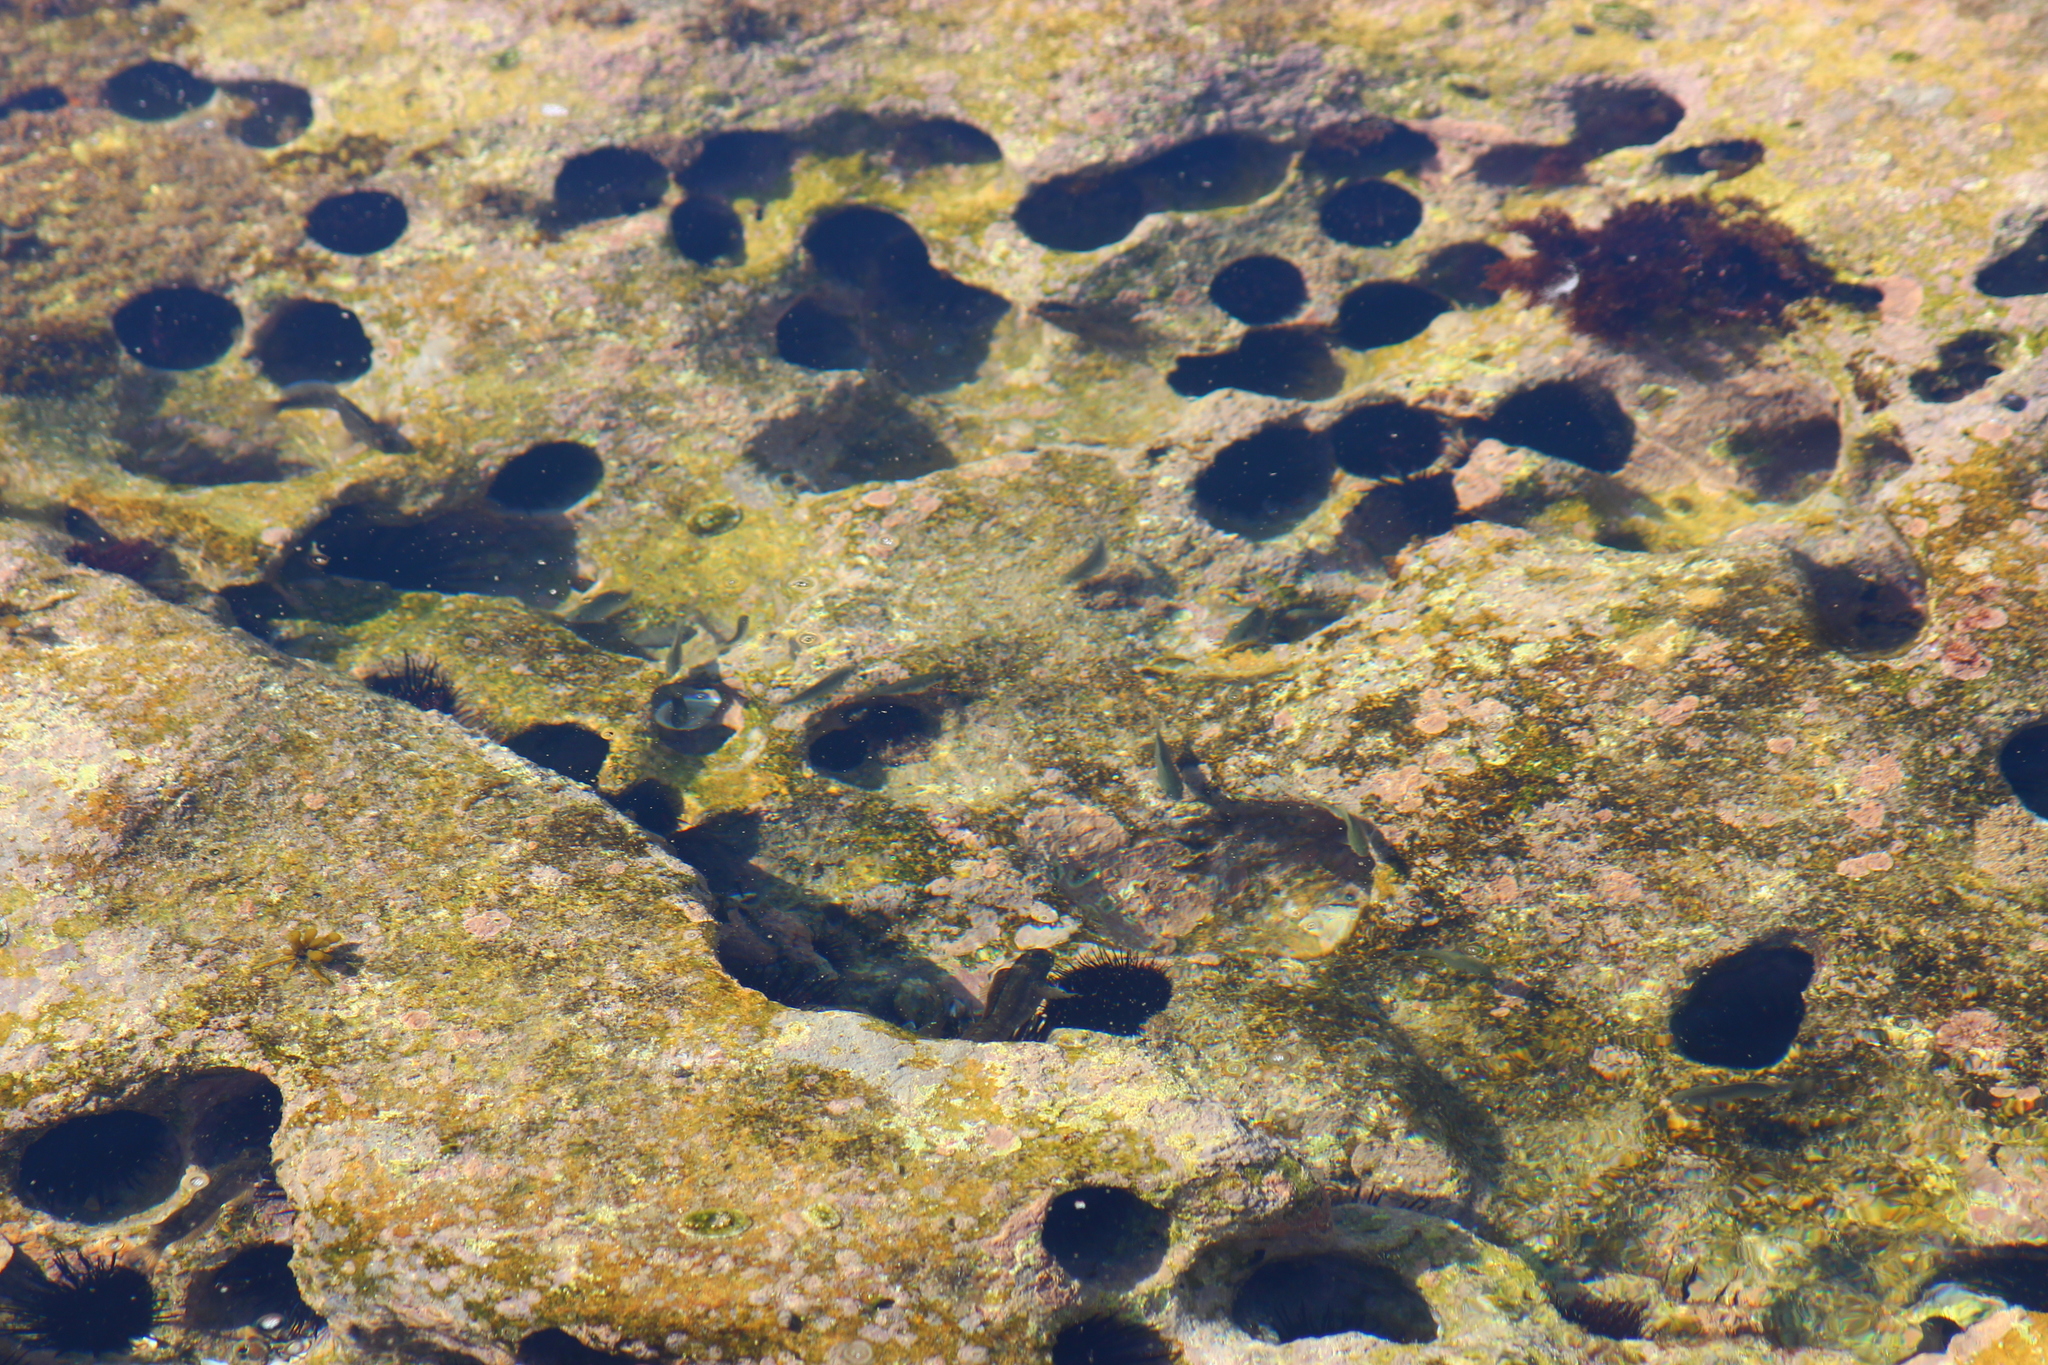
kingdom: Animalia
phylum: Echinodermata
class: Echinoidea
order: Camarodonta
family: Echinometridae
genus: Echinostrephus
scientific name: Echinostrephus molaris
